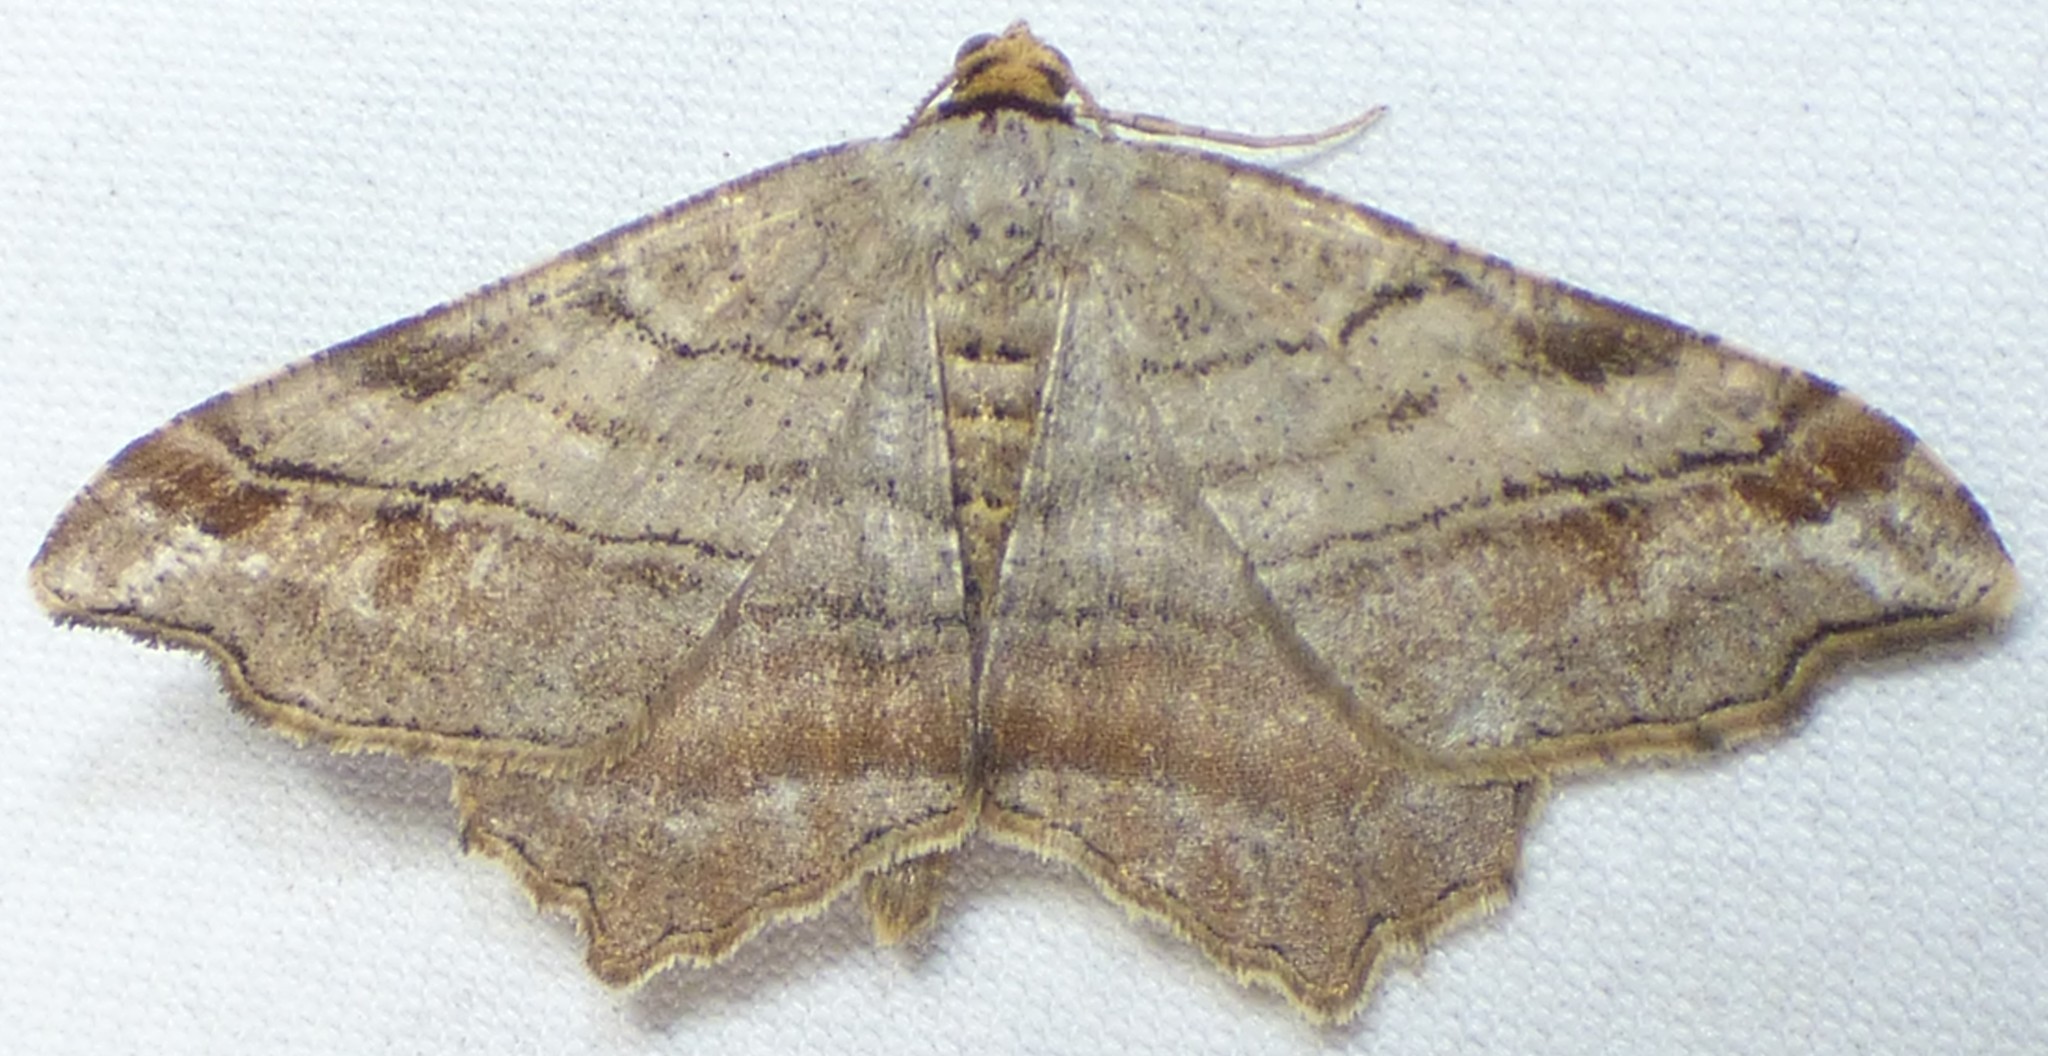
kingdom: Animalia
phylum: Arthropoda
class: Insecta
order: Lepidoptera
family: Geometridae
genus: Macaria
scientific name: Macaria multilineata
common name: Many-lined angle
